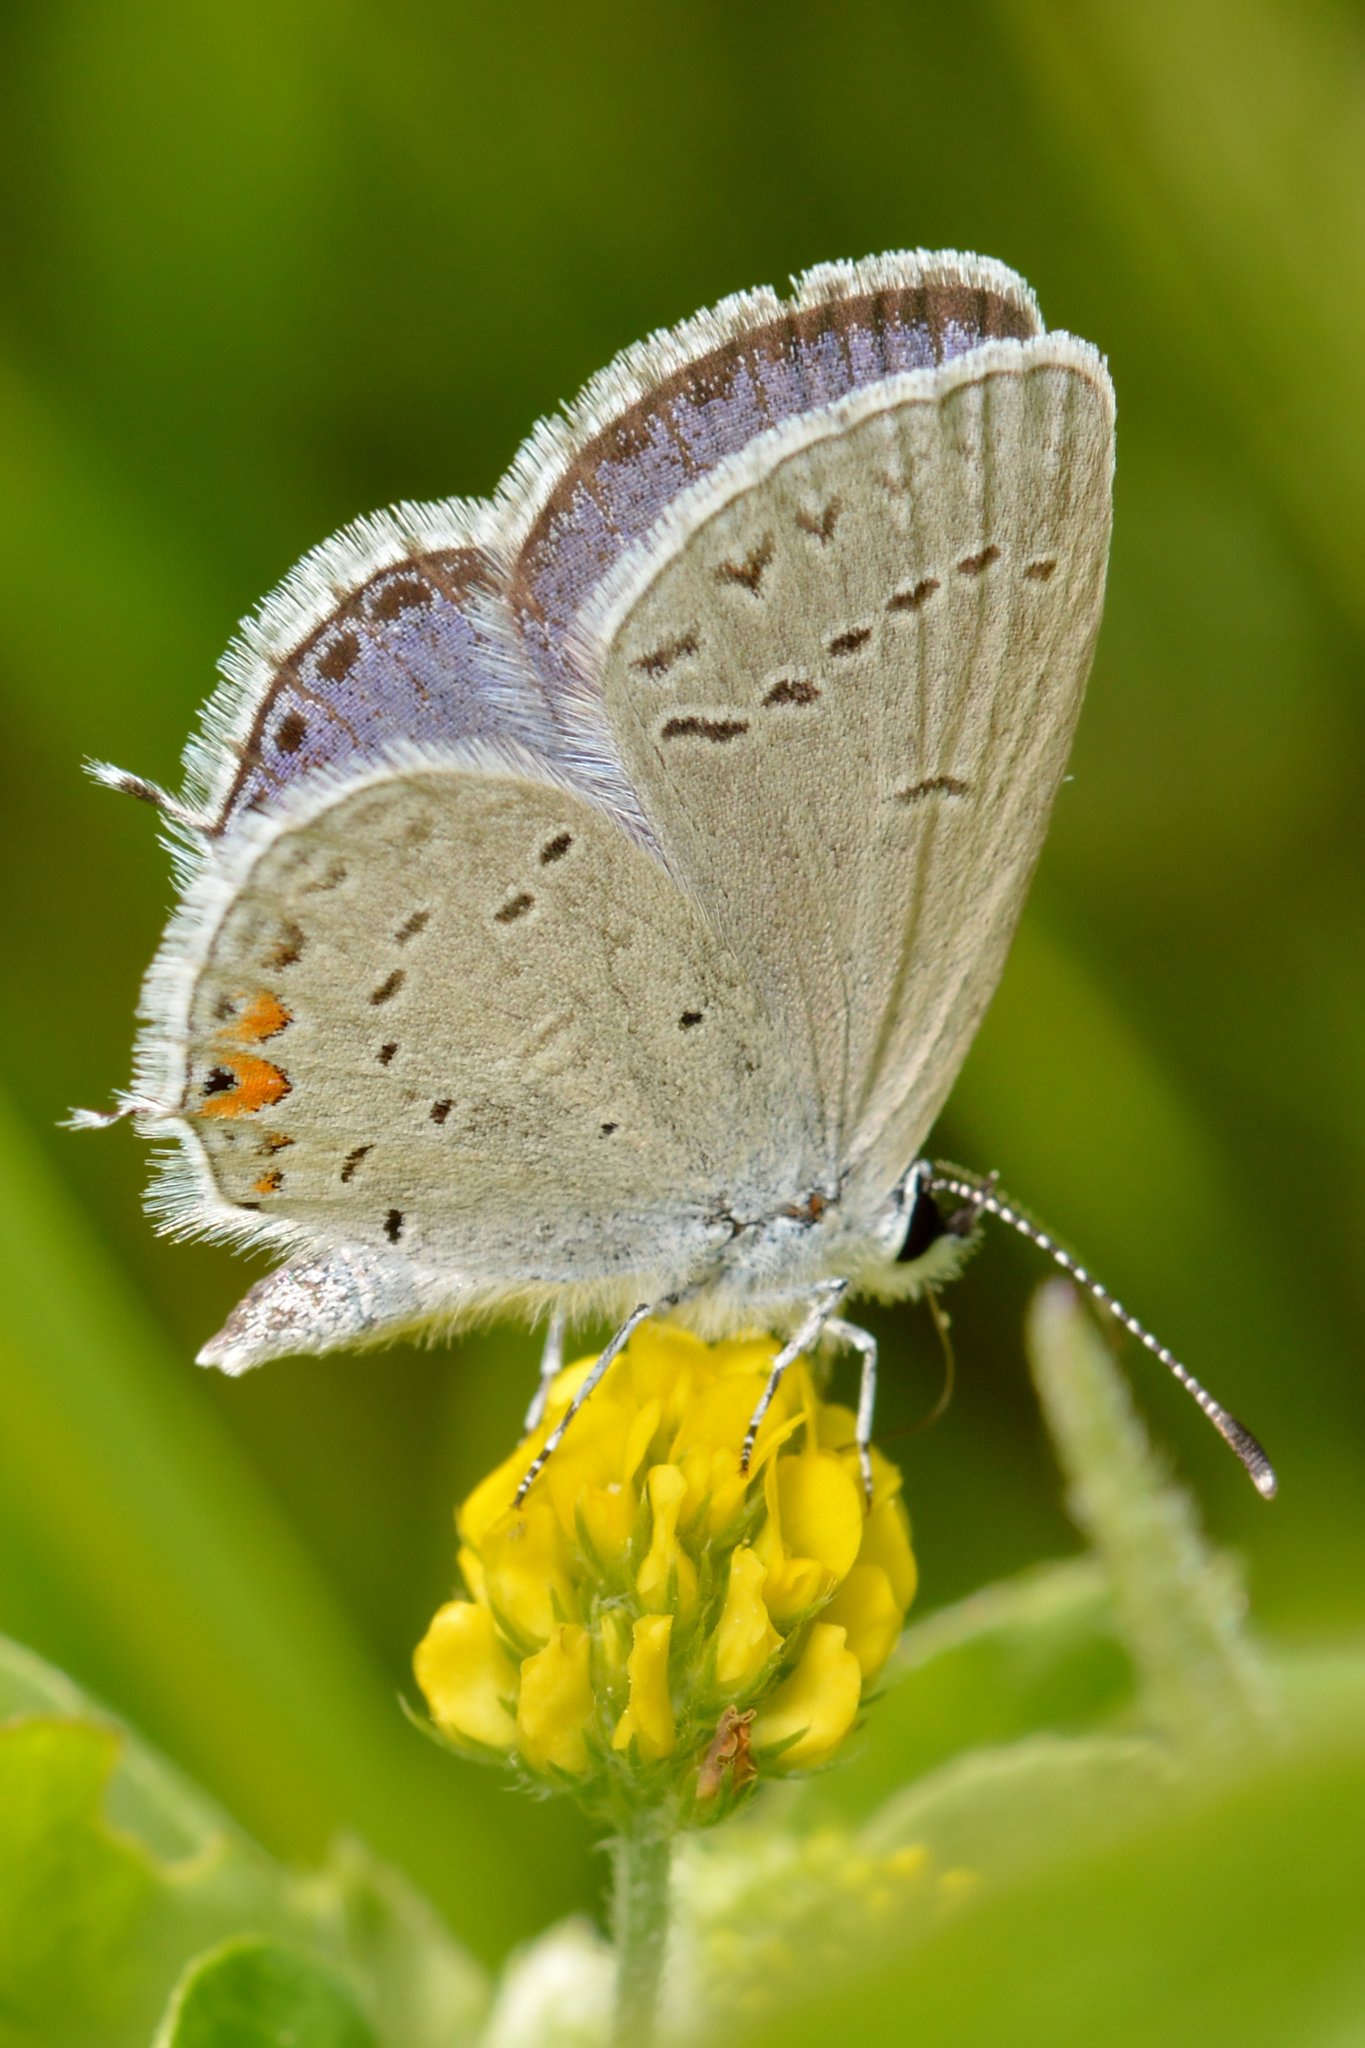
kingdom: Animalia
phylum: Arthropoda
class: Insecta
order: Lepidoptera
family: Lycaenidae
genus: Elkalyce
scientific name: Elkalyce comyntas
